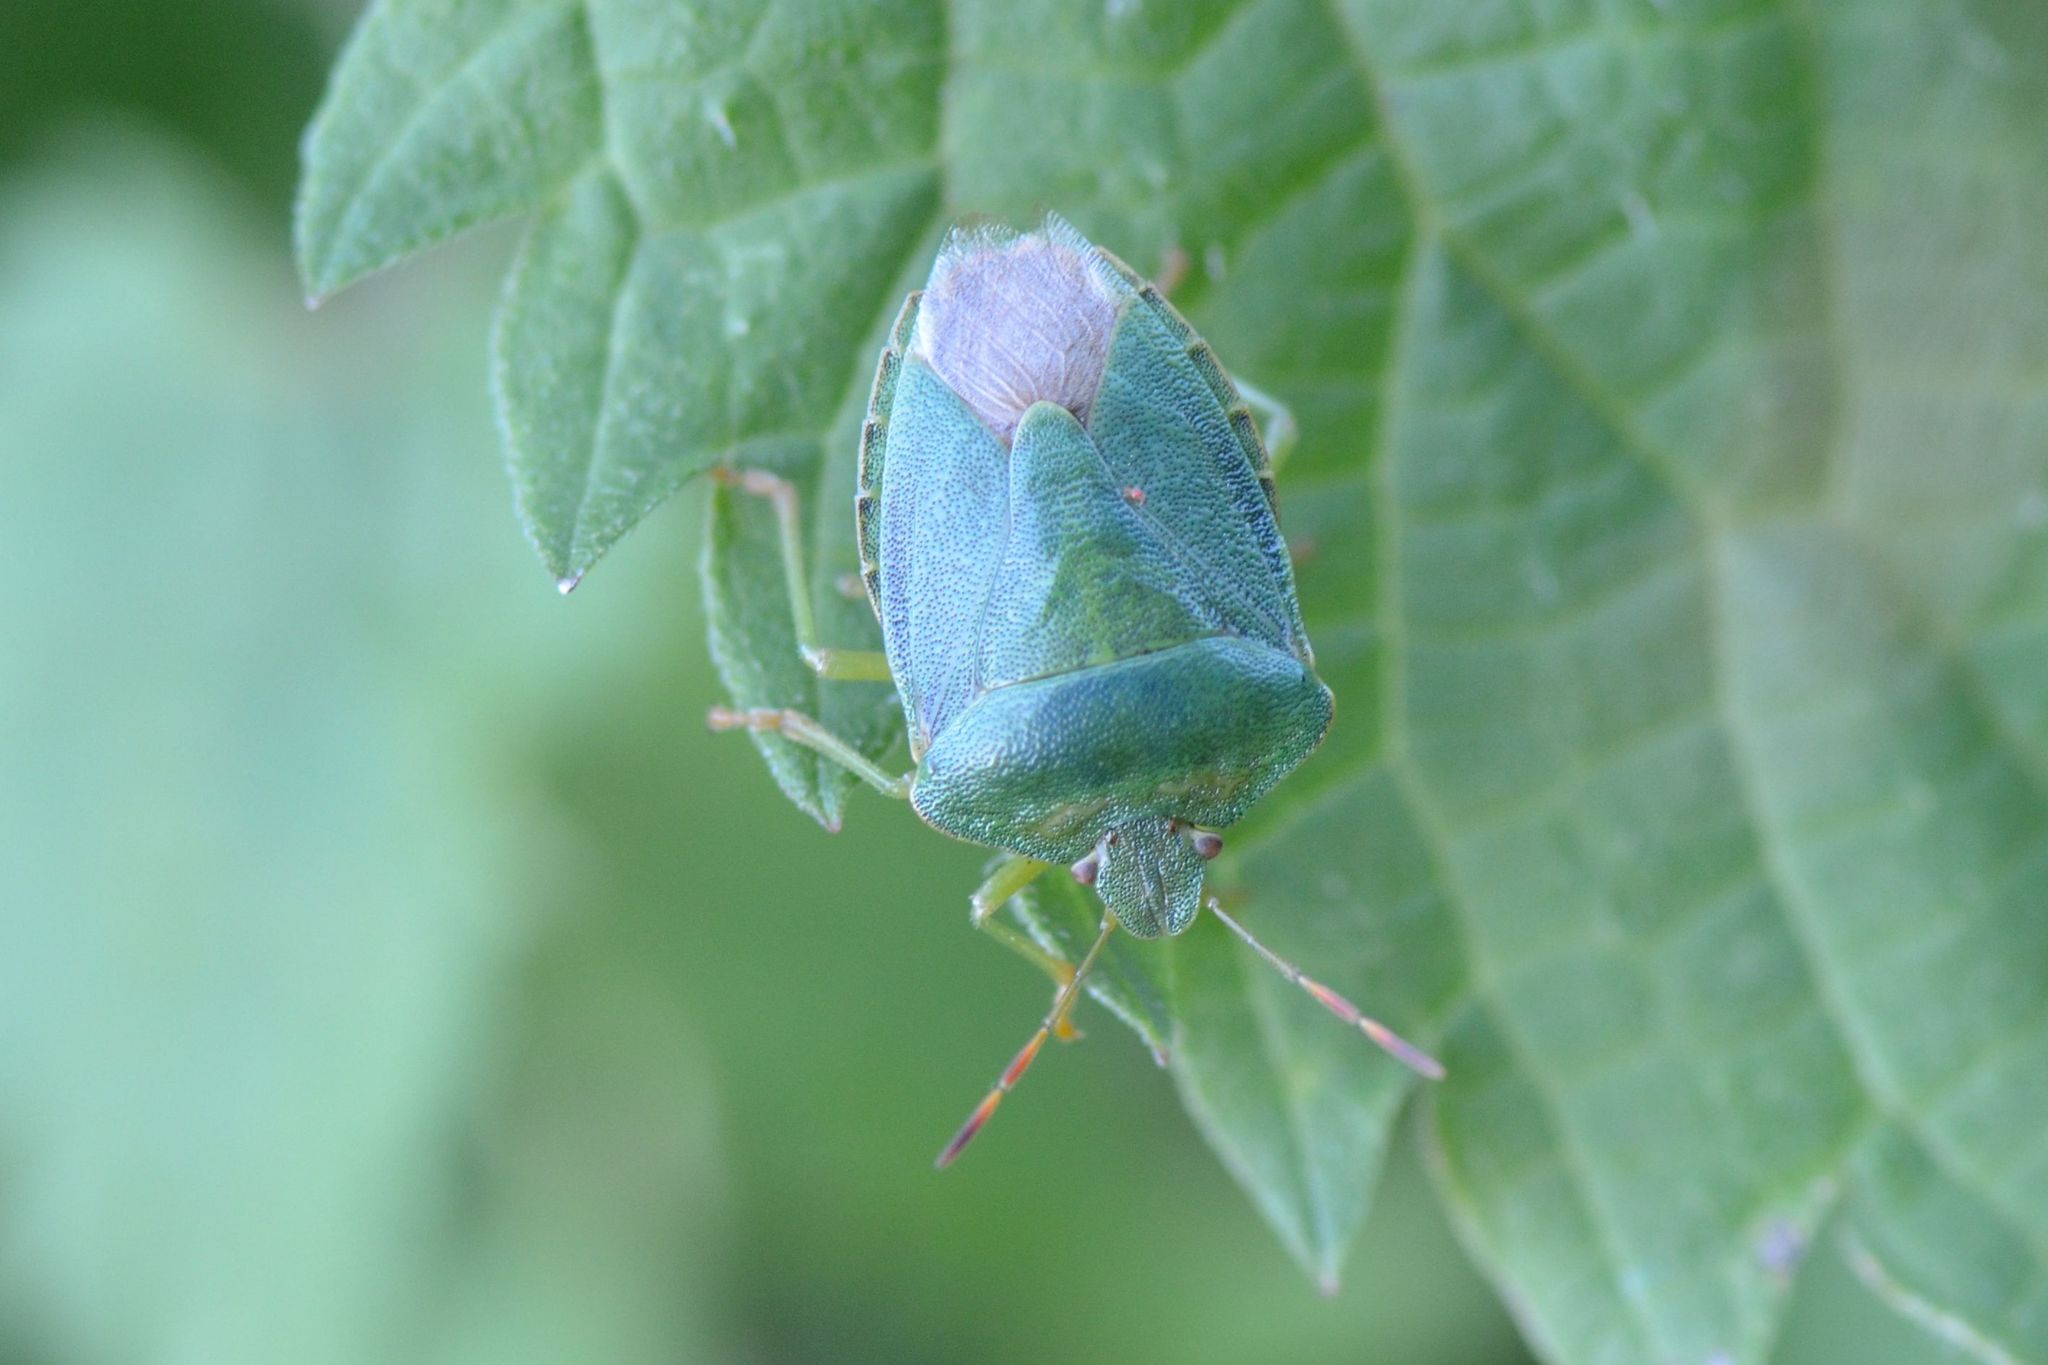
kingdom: Animalia
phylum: Arthropoda
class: Insecta
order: Hemiptera
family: Pentatomidae
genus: Palomena
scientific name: Palomena prasina
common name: Green shieldbug
